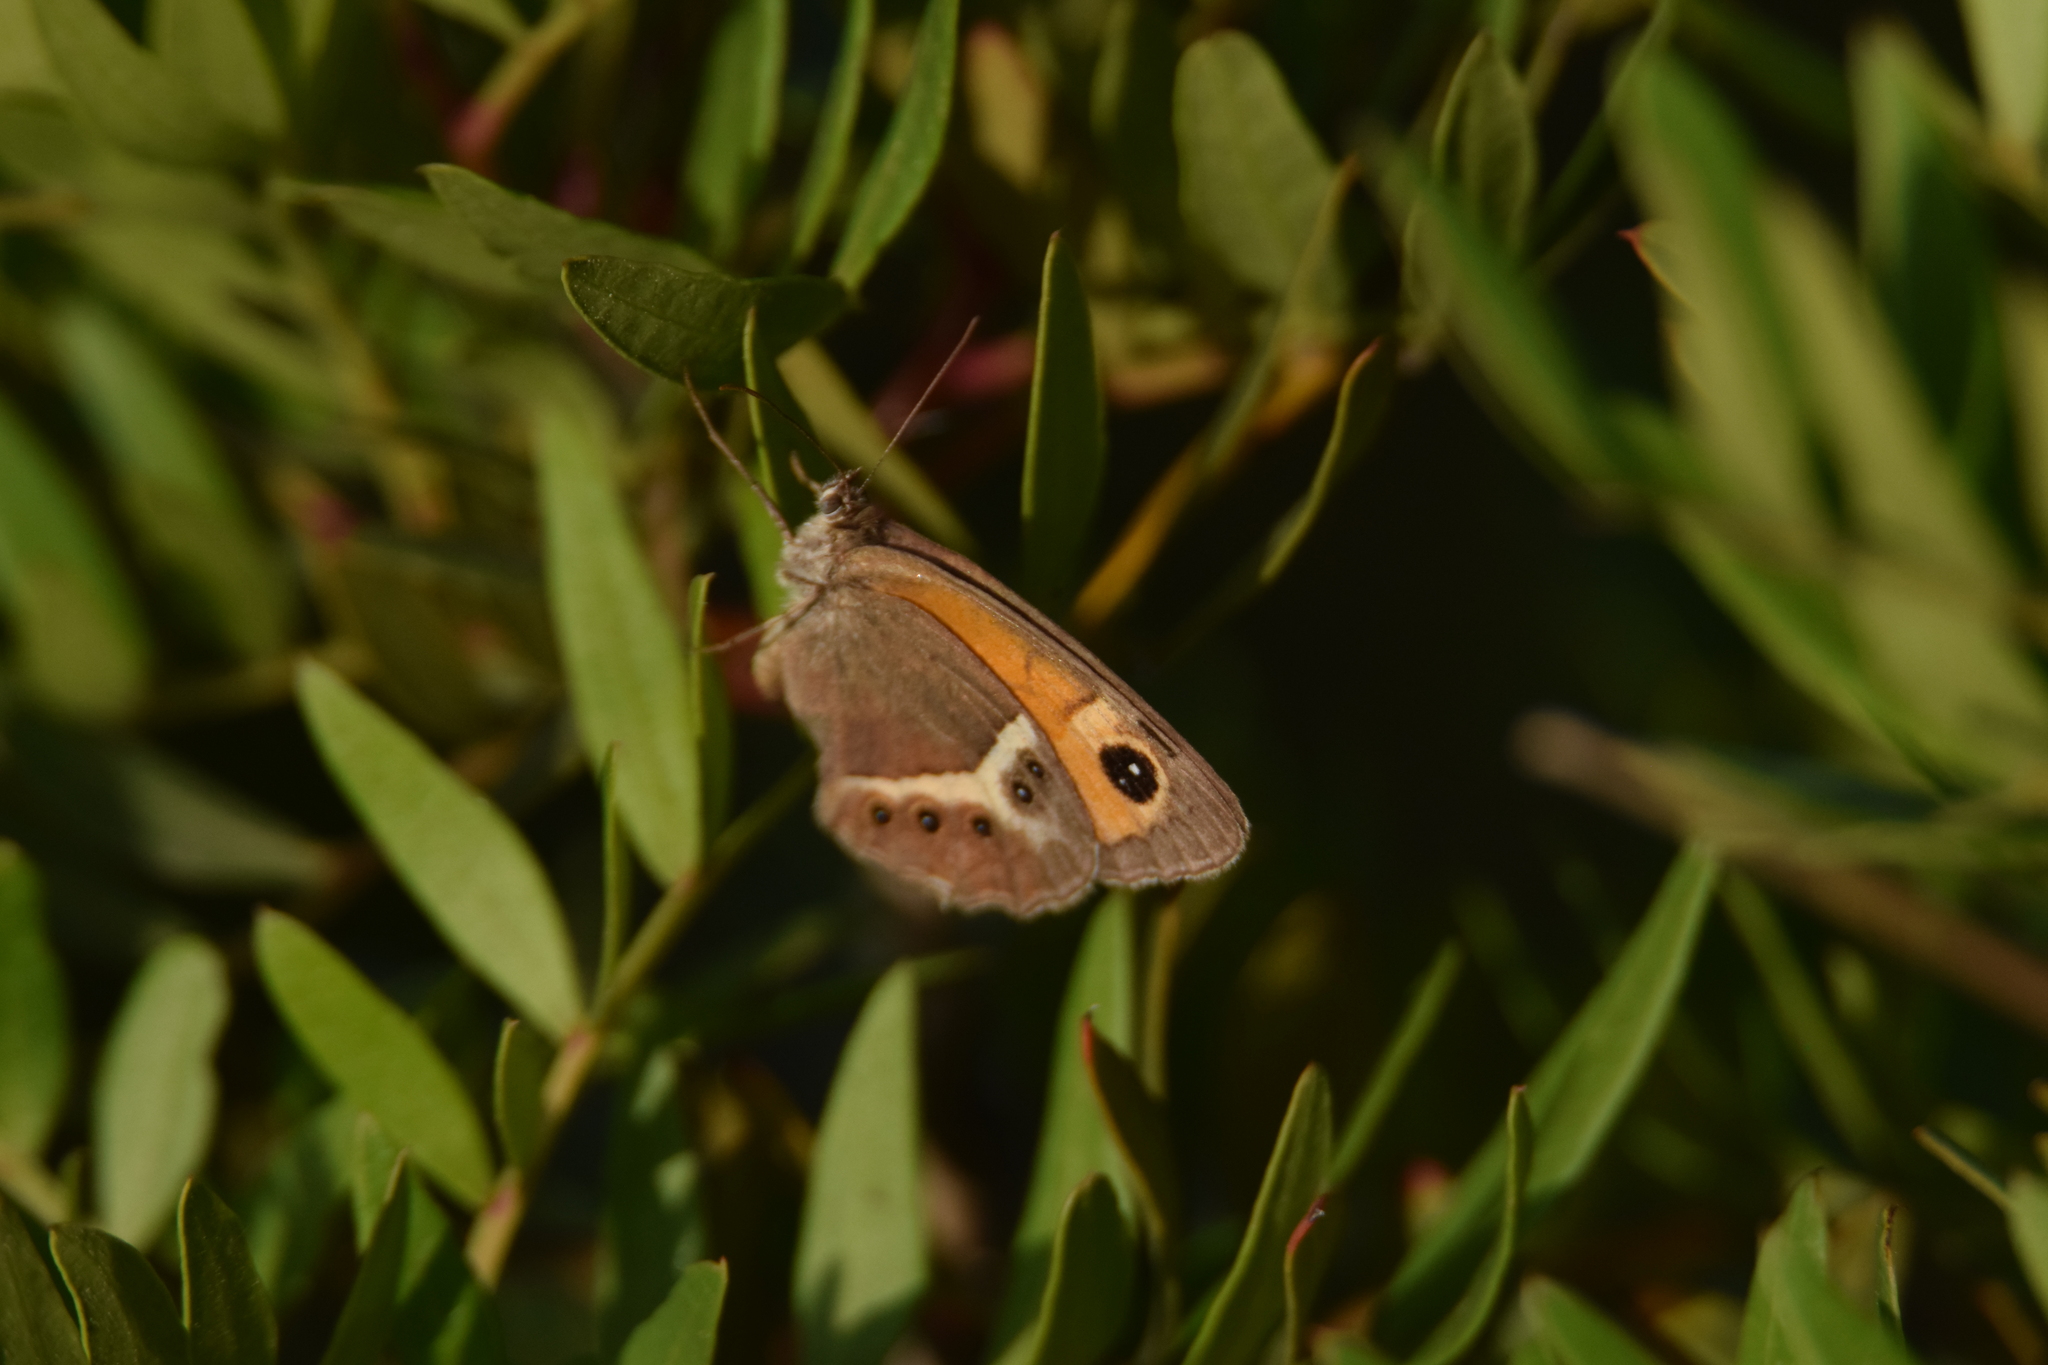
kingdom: Animalia
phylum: Arthropoda
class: Insecta
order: Lepidoptera
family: Nymphalidae
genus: Pyronia
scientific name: Pyronia bathseba
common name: Spanish gatekeeper
